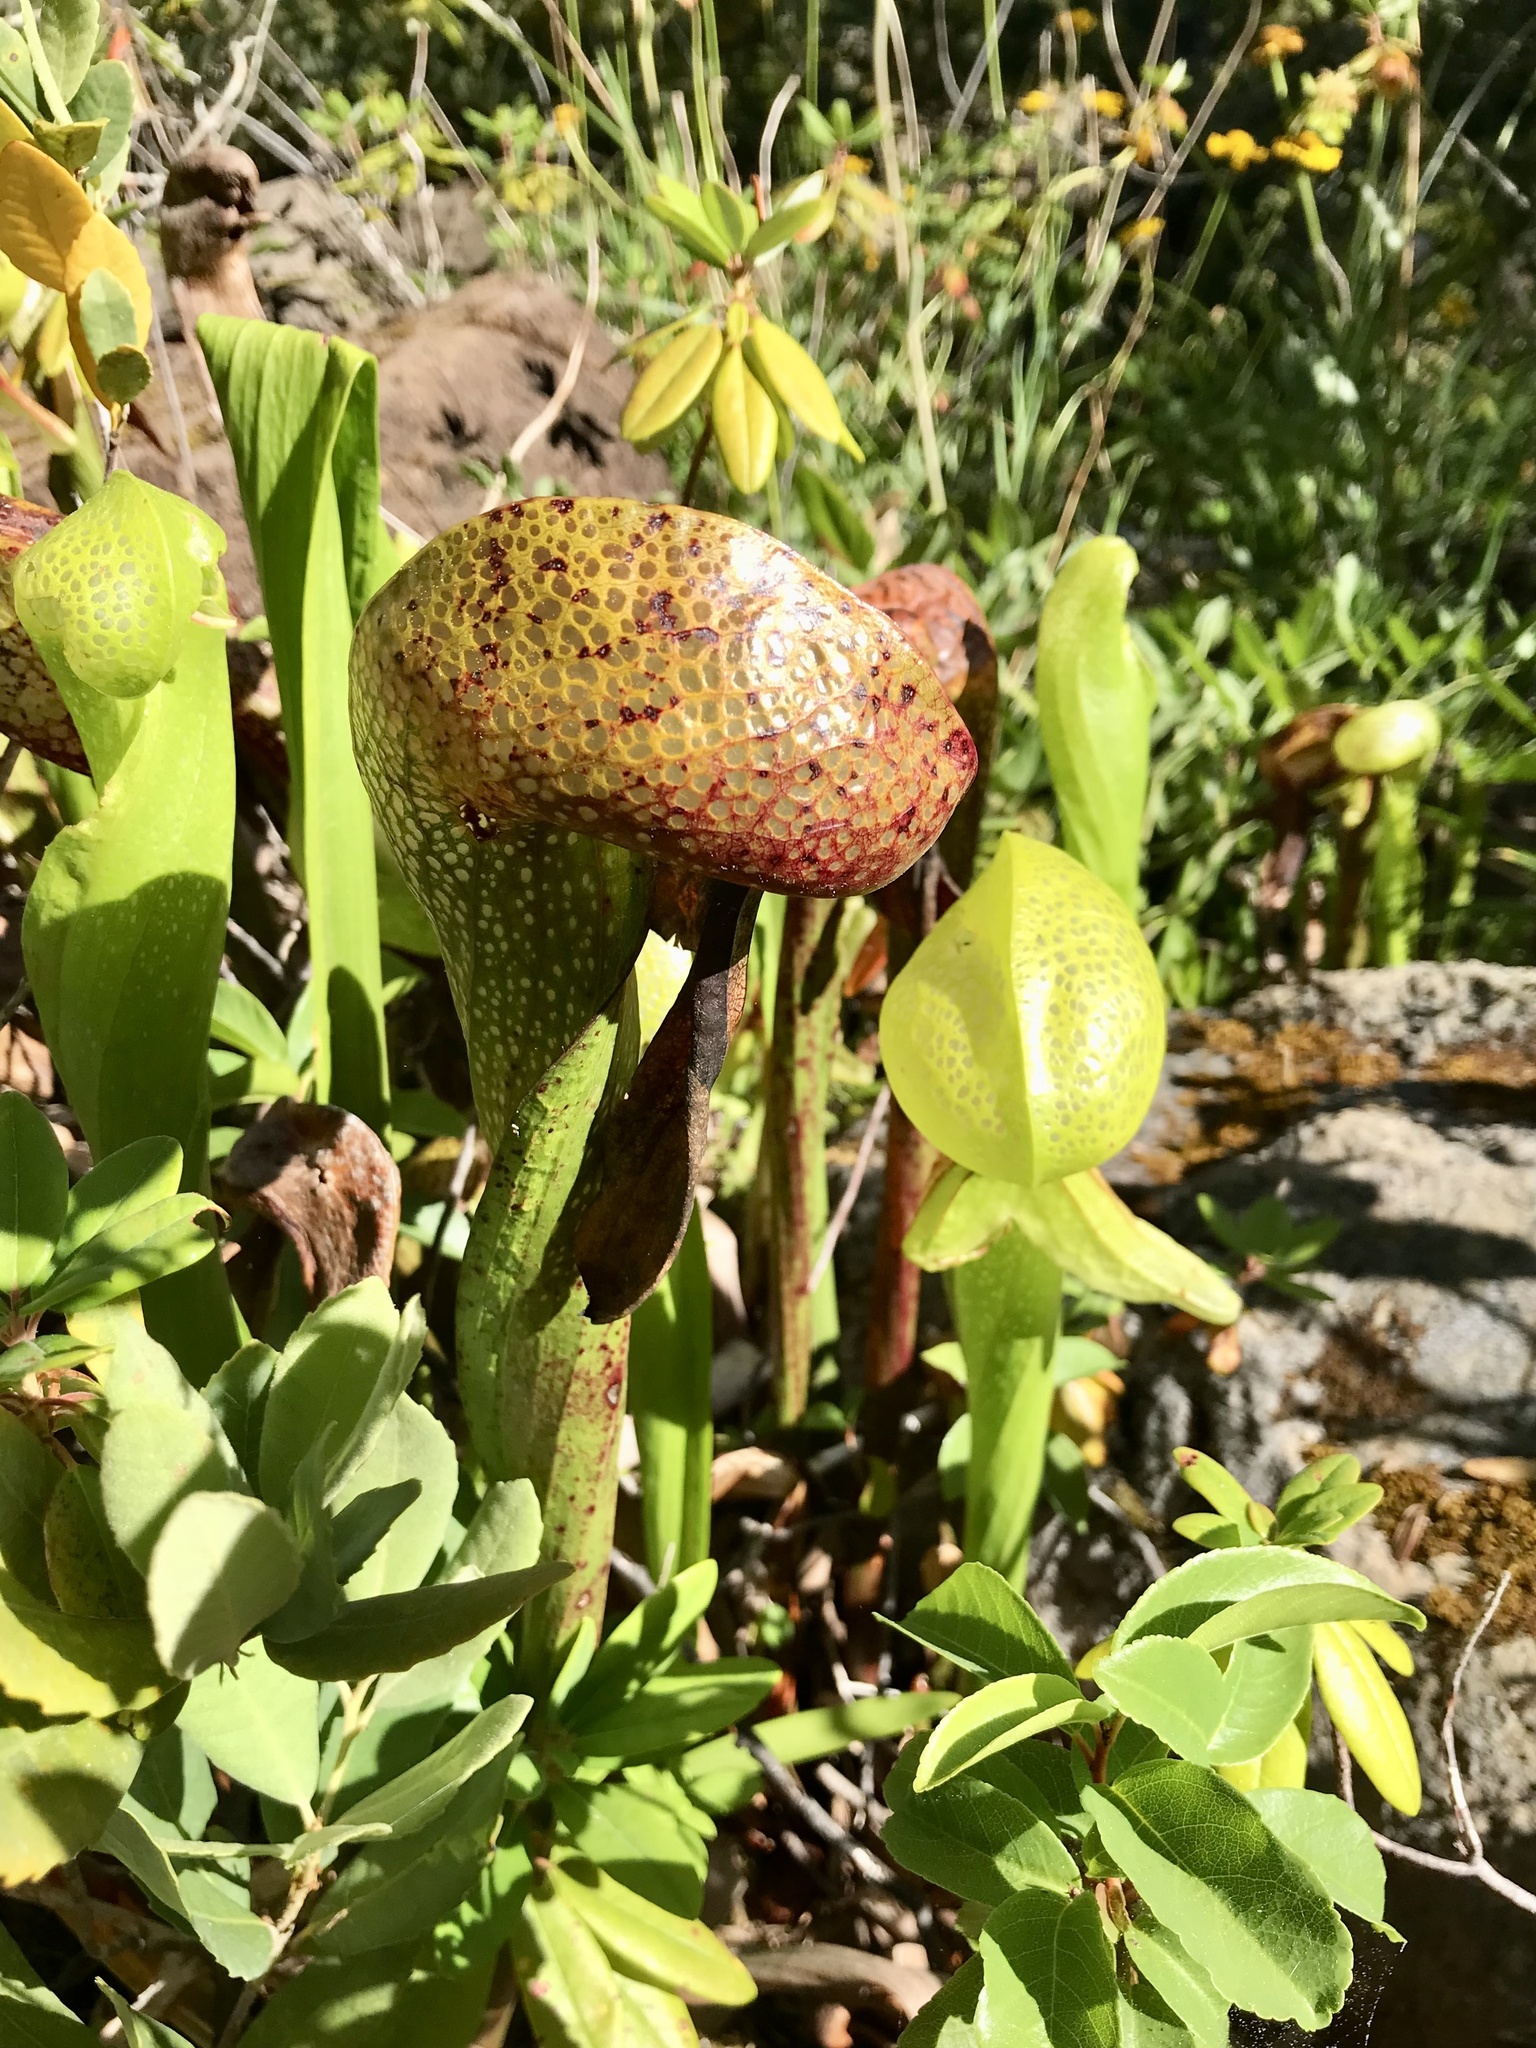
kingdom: Plantae
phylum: Tracheophyta
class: Magnoliopsida
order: Ericales
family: Sarraceniaceae
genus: Darlingtonia
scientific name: Darlingtonia californica
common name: California pitcher plant
